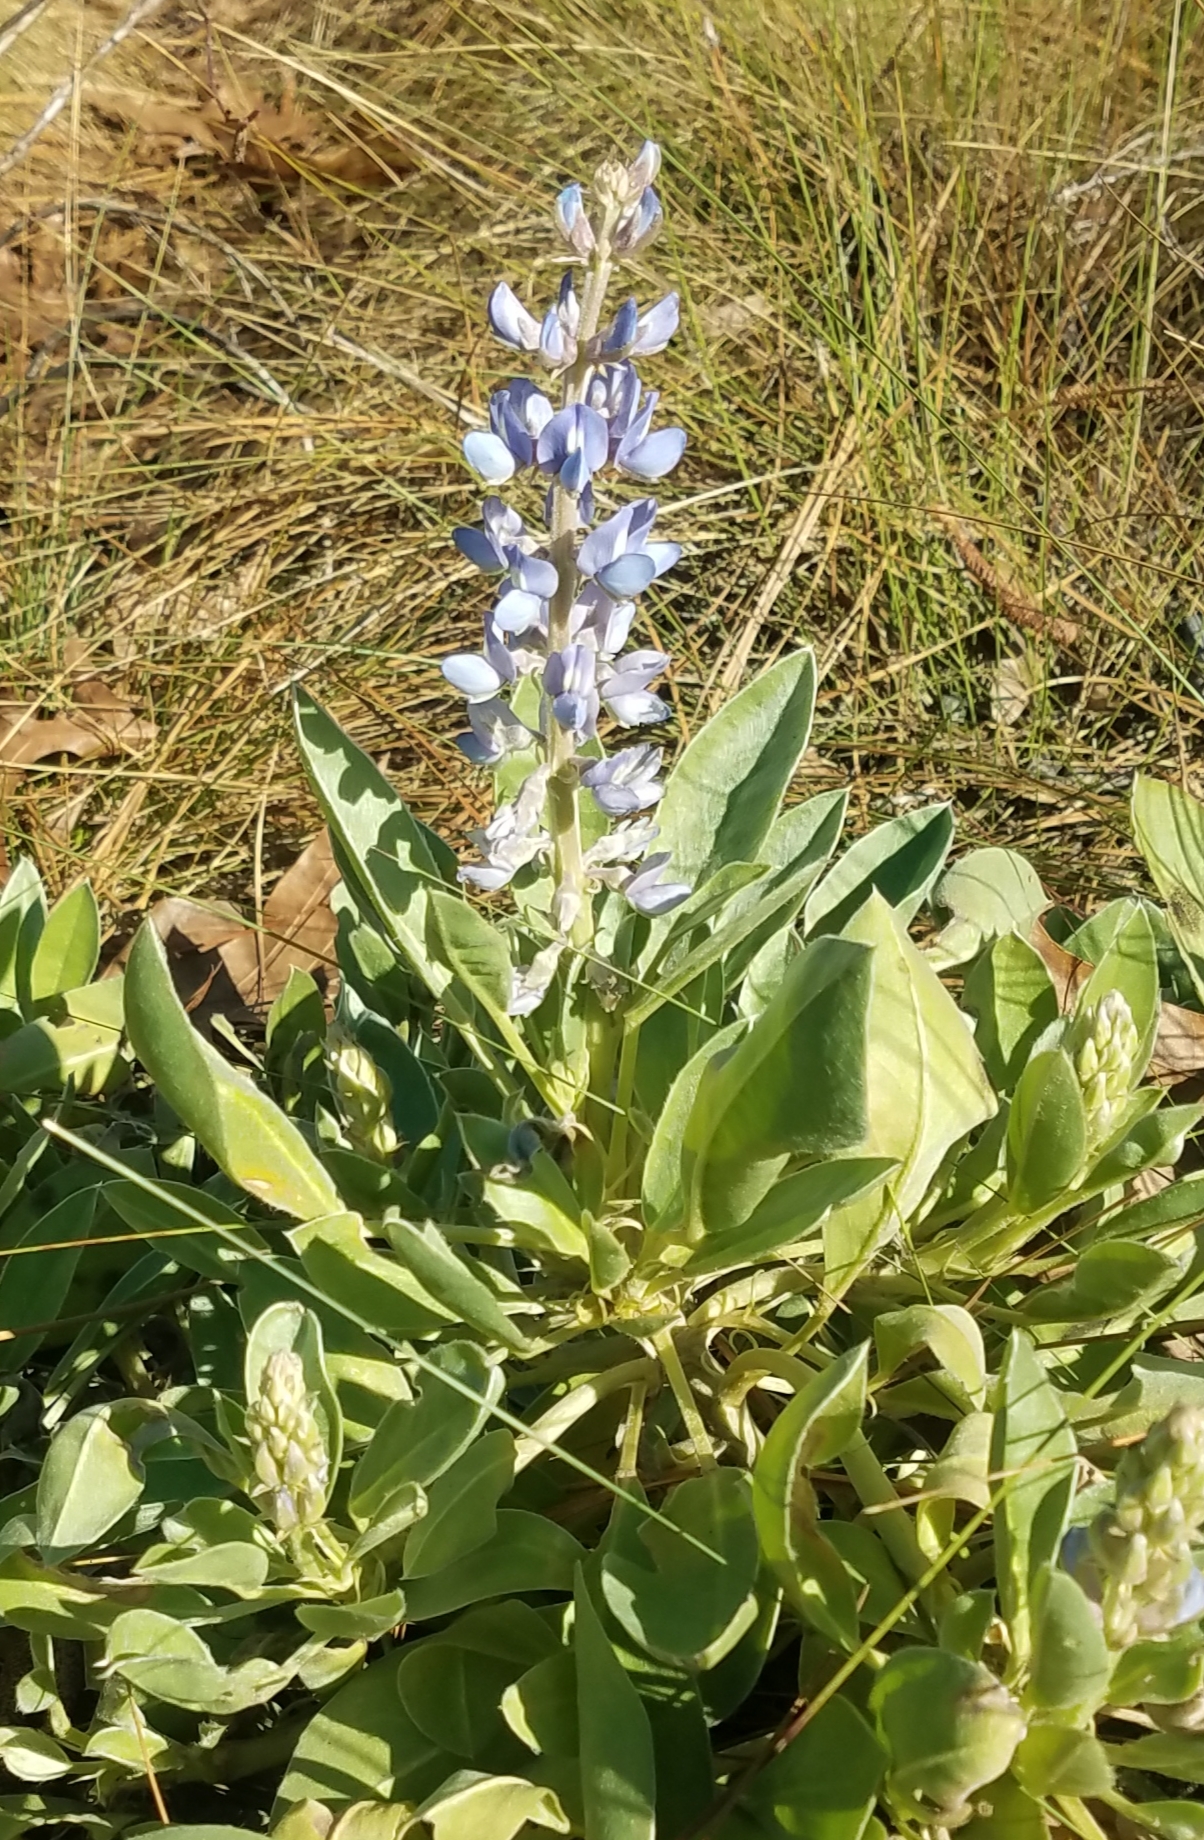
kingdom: Plantae
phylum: Tracheophyta
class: Magnoliopsida
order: Fabales
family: Fabaceae
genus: Lupinus
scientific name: Lupinus
